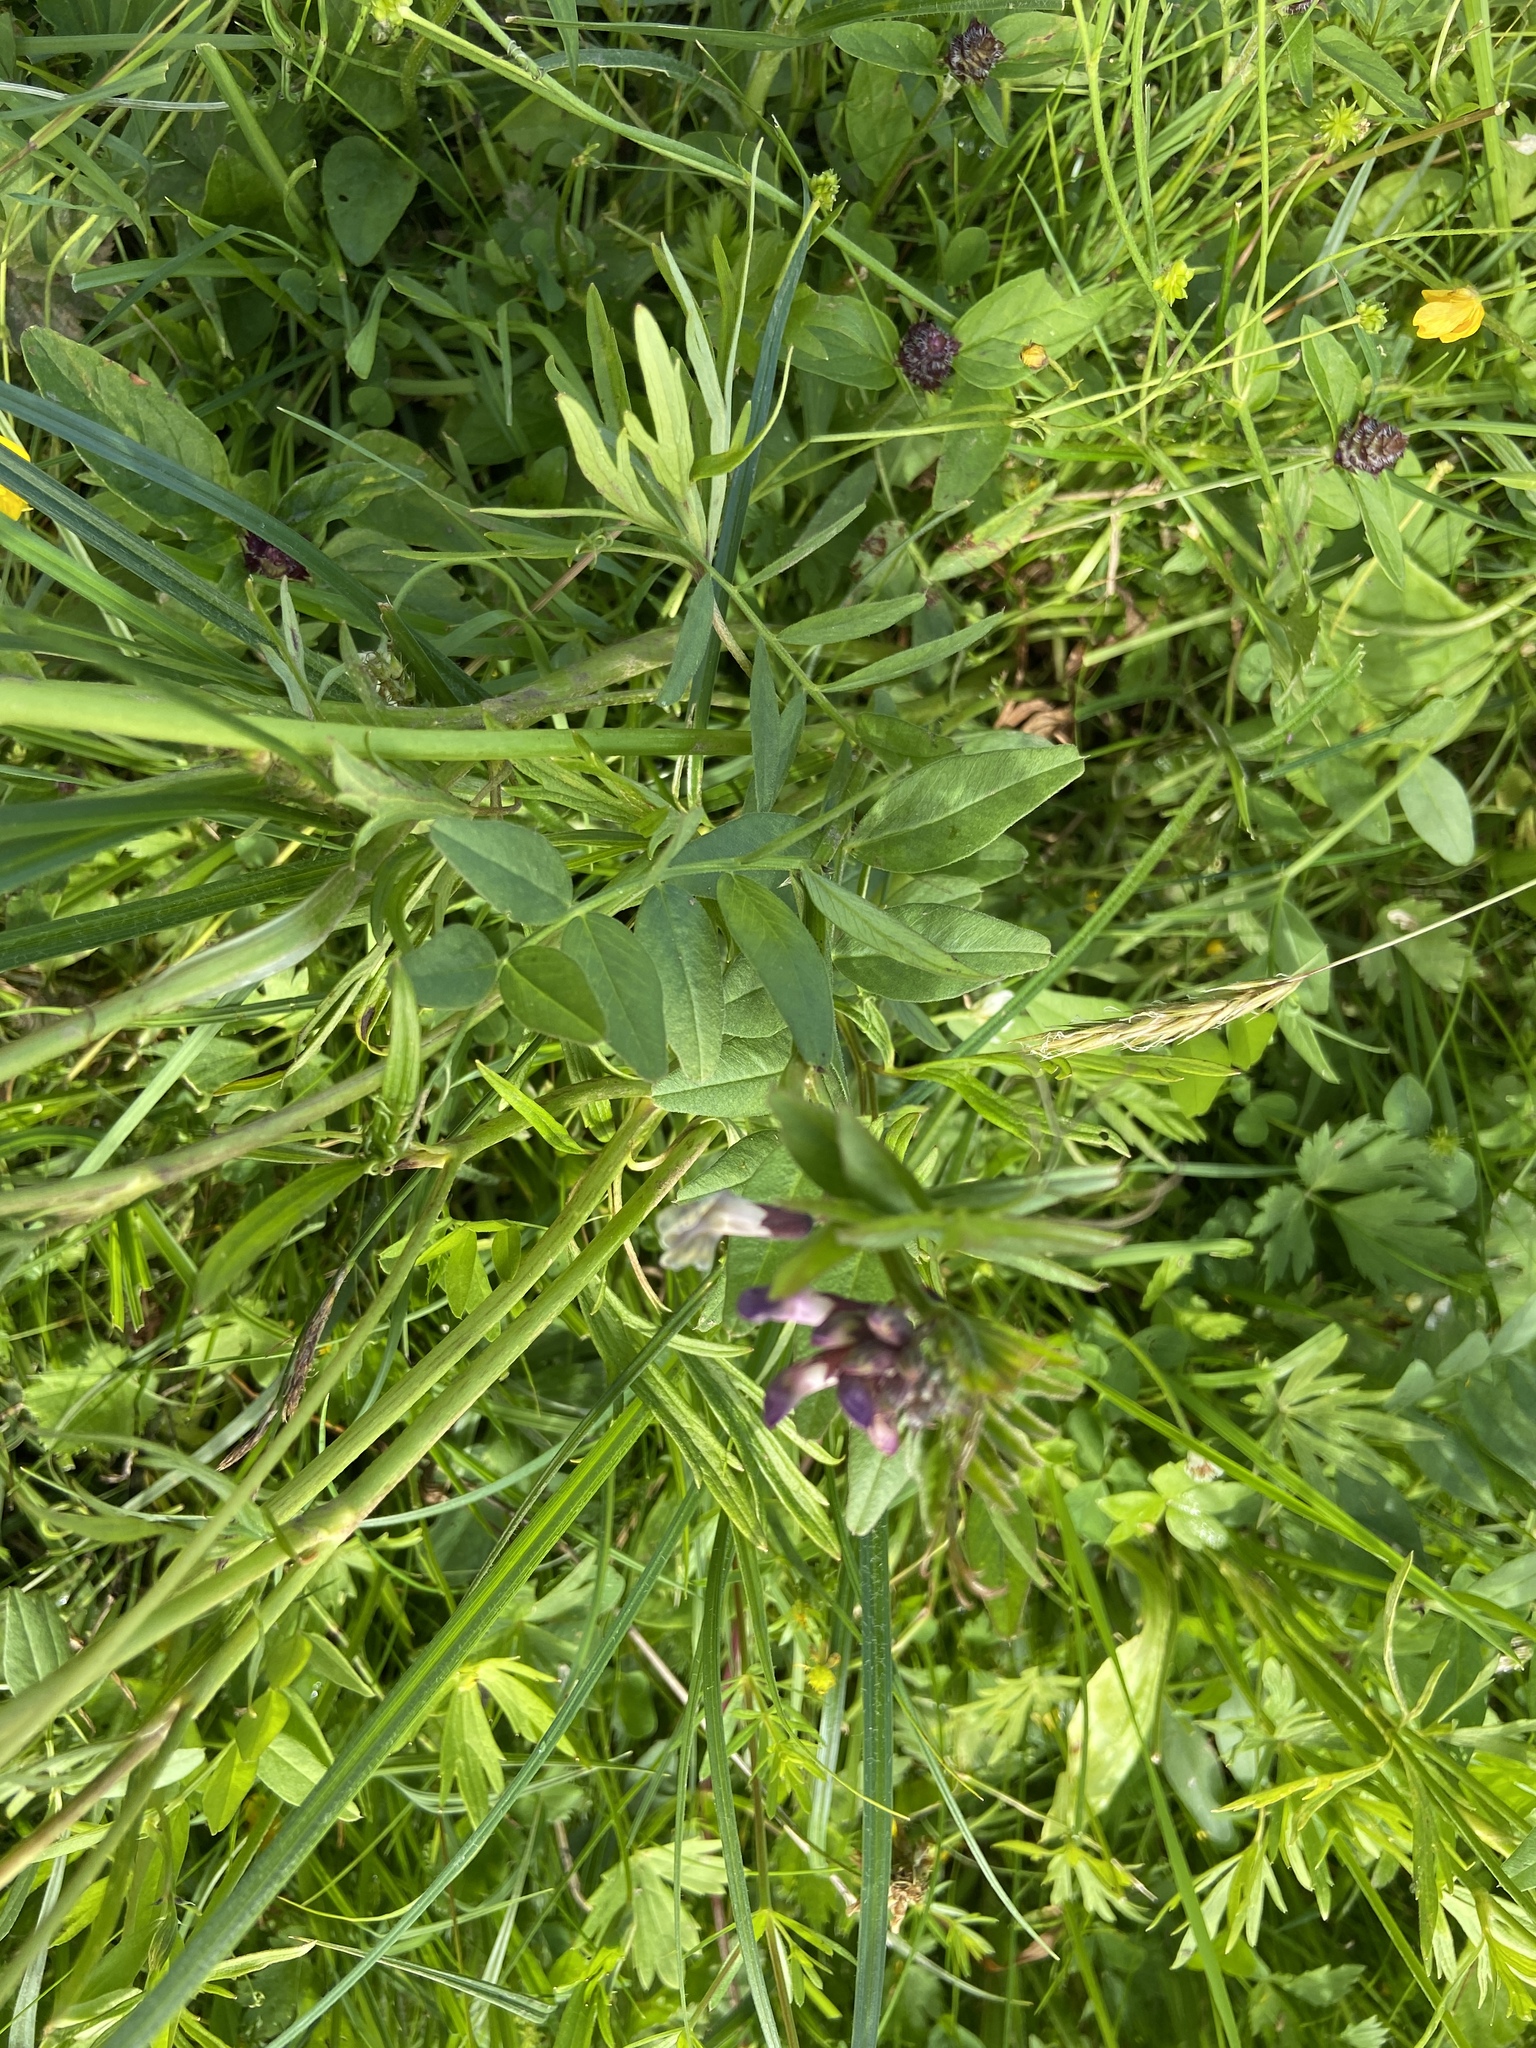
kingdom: Plantae
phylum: Tracheophyta
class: Magnoliopsida
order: Fabales
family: Fabaceae
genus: Vicia
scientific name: Vicia sepium
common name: Bush vetch
